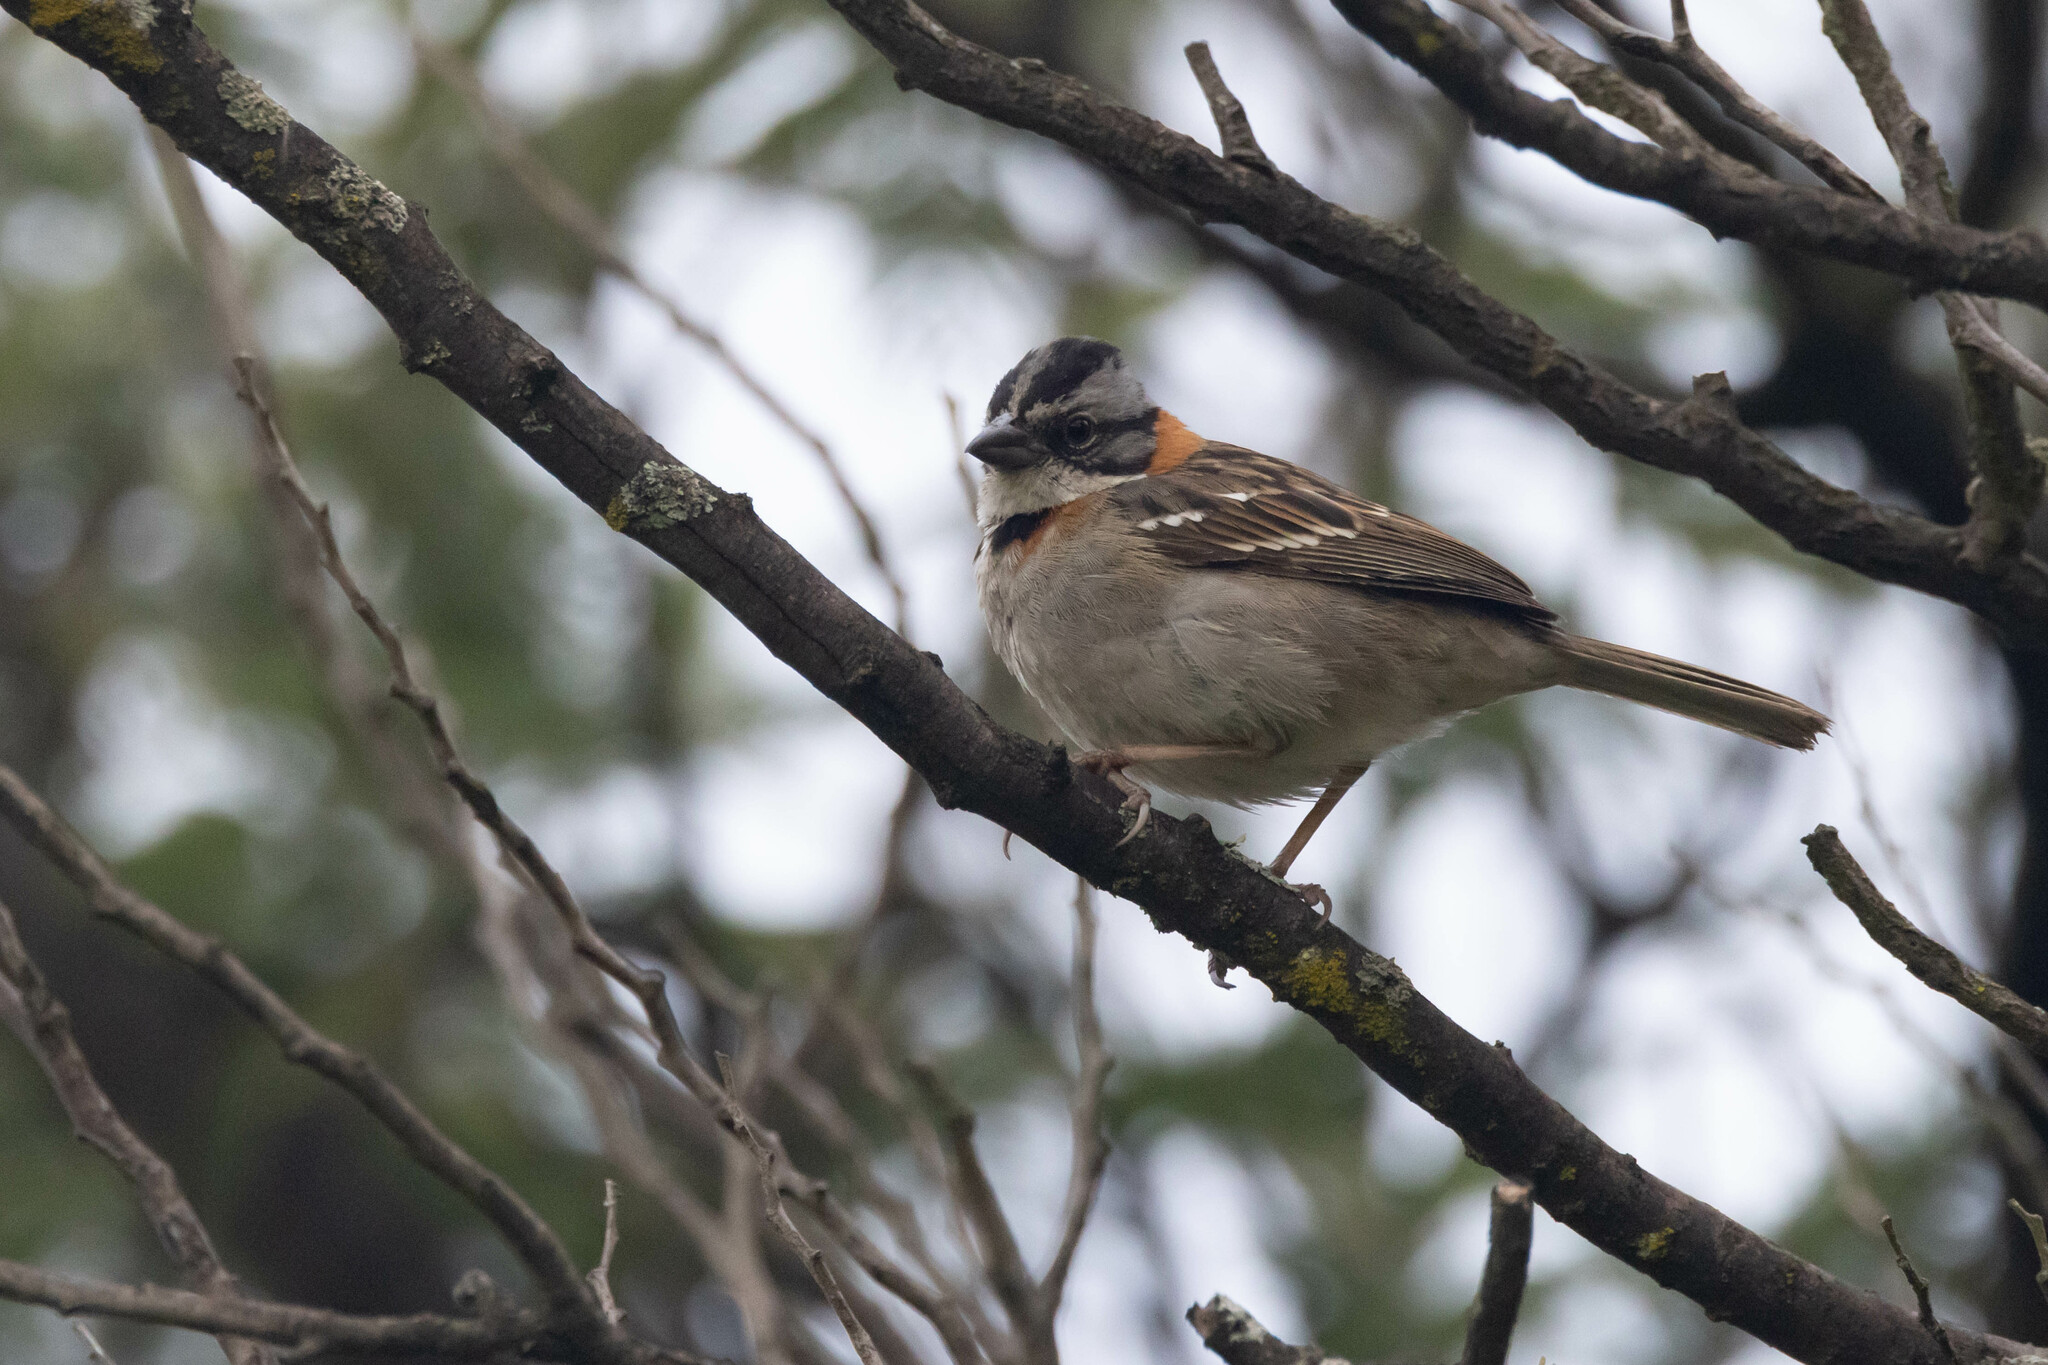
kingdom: Animalia
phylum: Chordata
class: Aves
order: Passeriformes
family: Passerellidae
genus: Zonotrichia
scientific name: Zonotrichia capensis
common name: Rufous-collared sparrow
